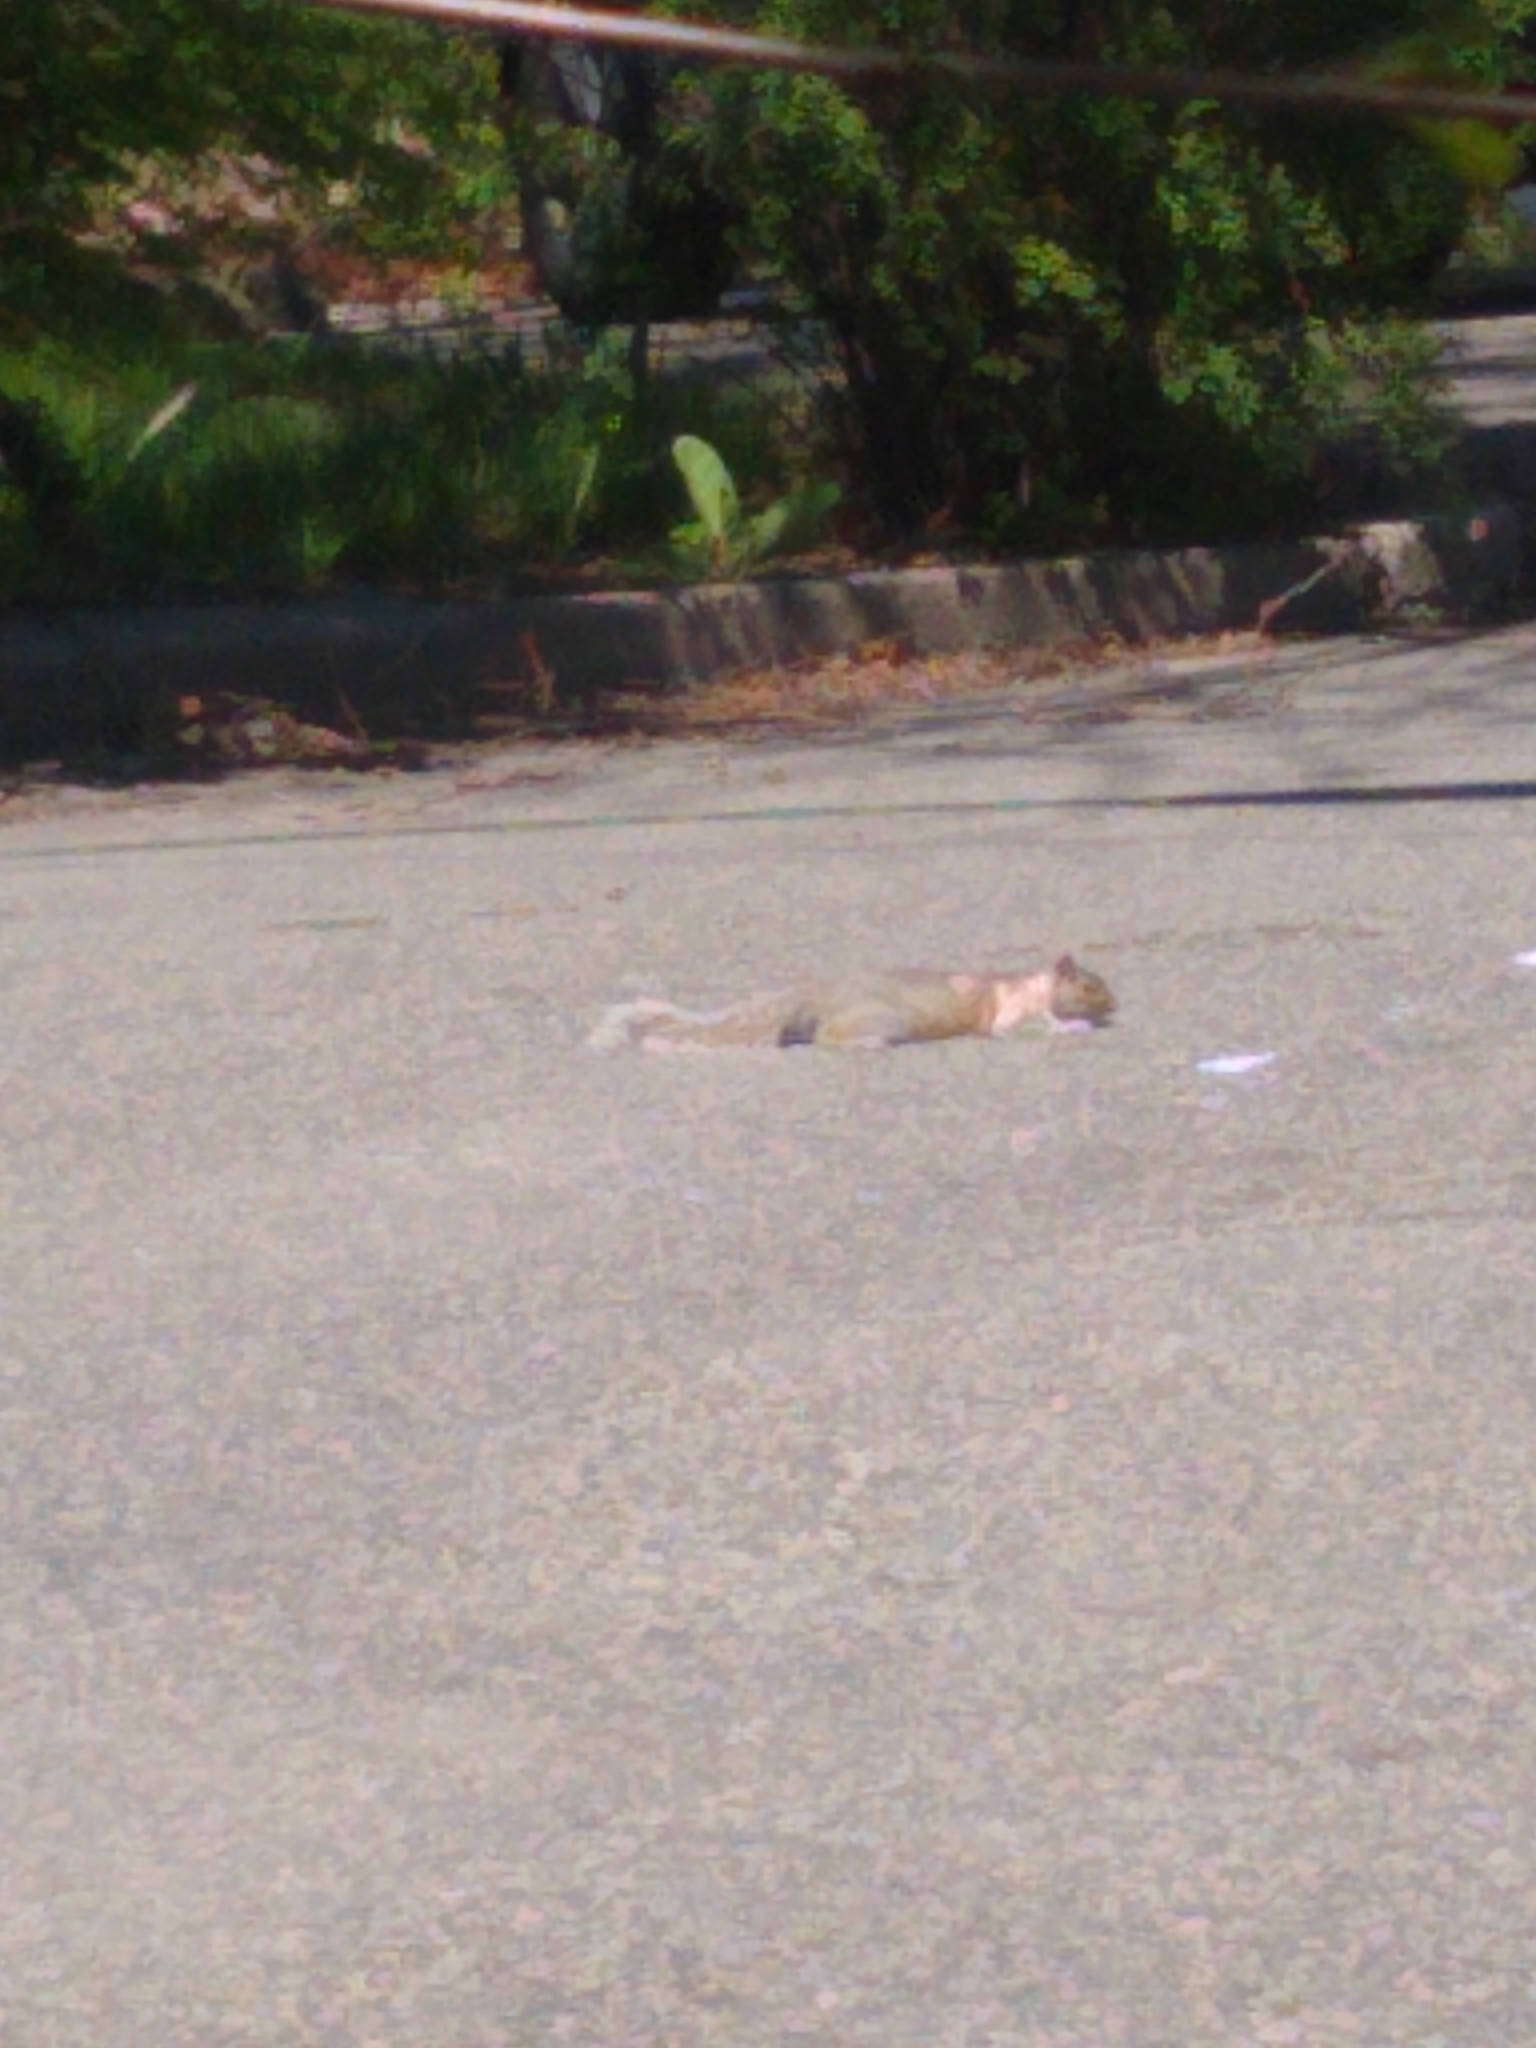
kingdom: Animalia
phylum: Chordata
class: Mammalia
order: Rodentia
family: Sciuridae
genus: Sciurus
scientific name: Sciurus carolinensis
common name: Eastern gray squirrel
